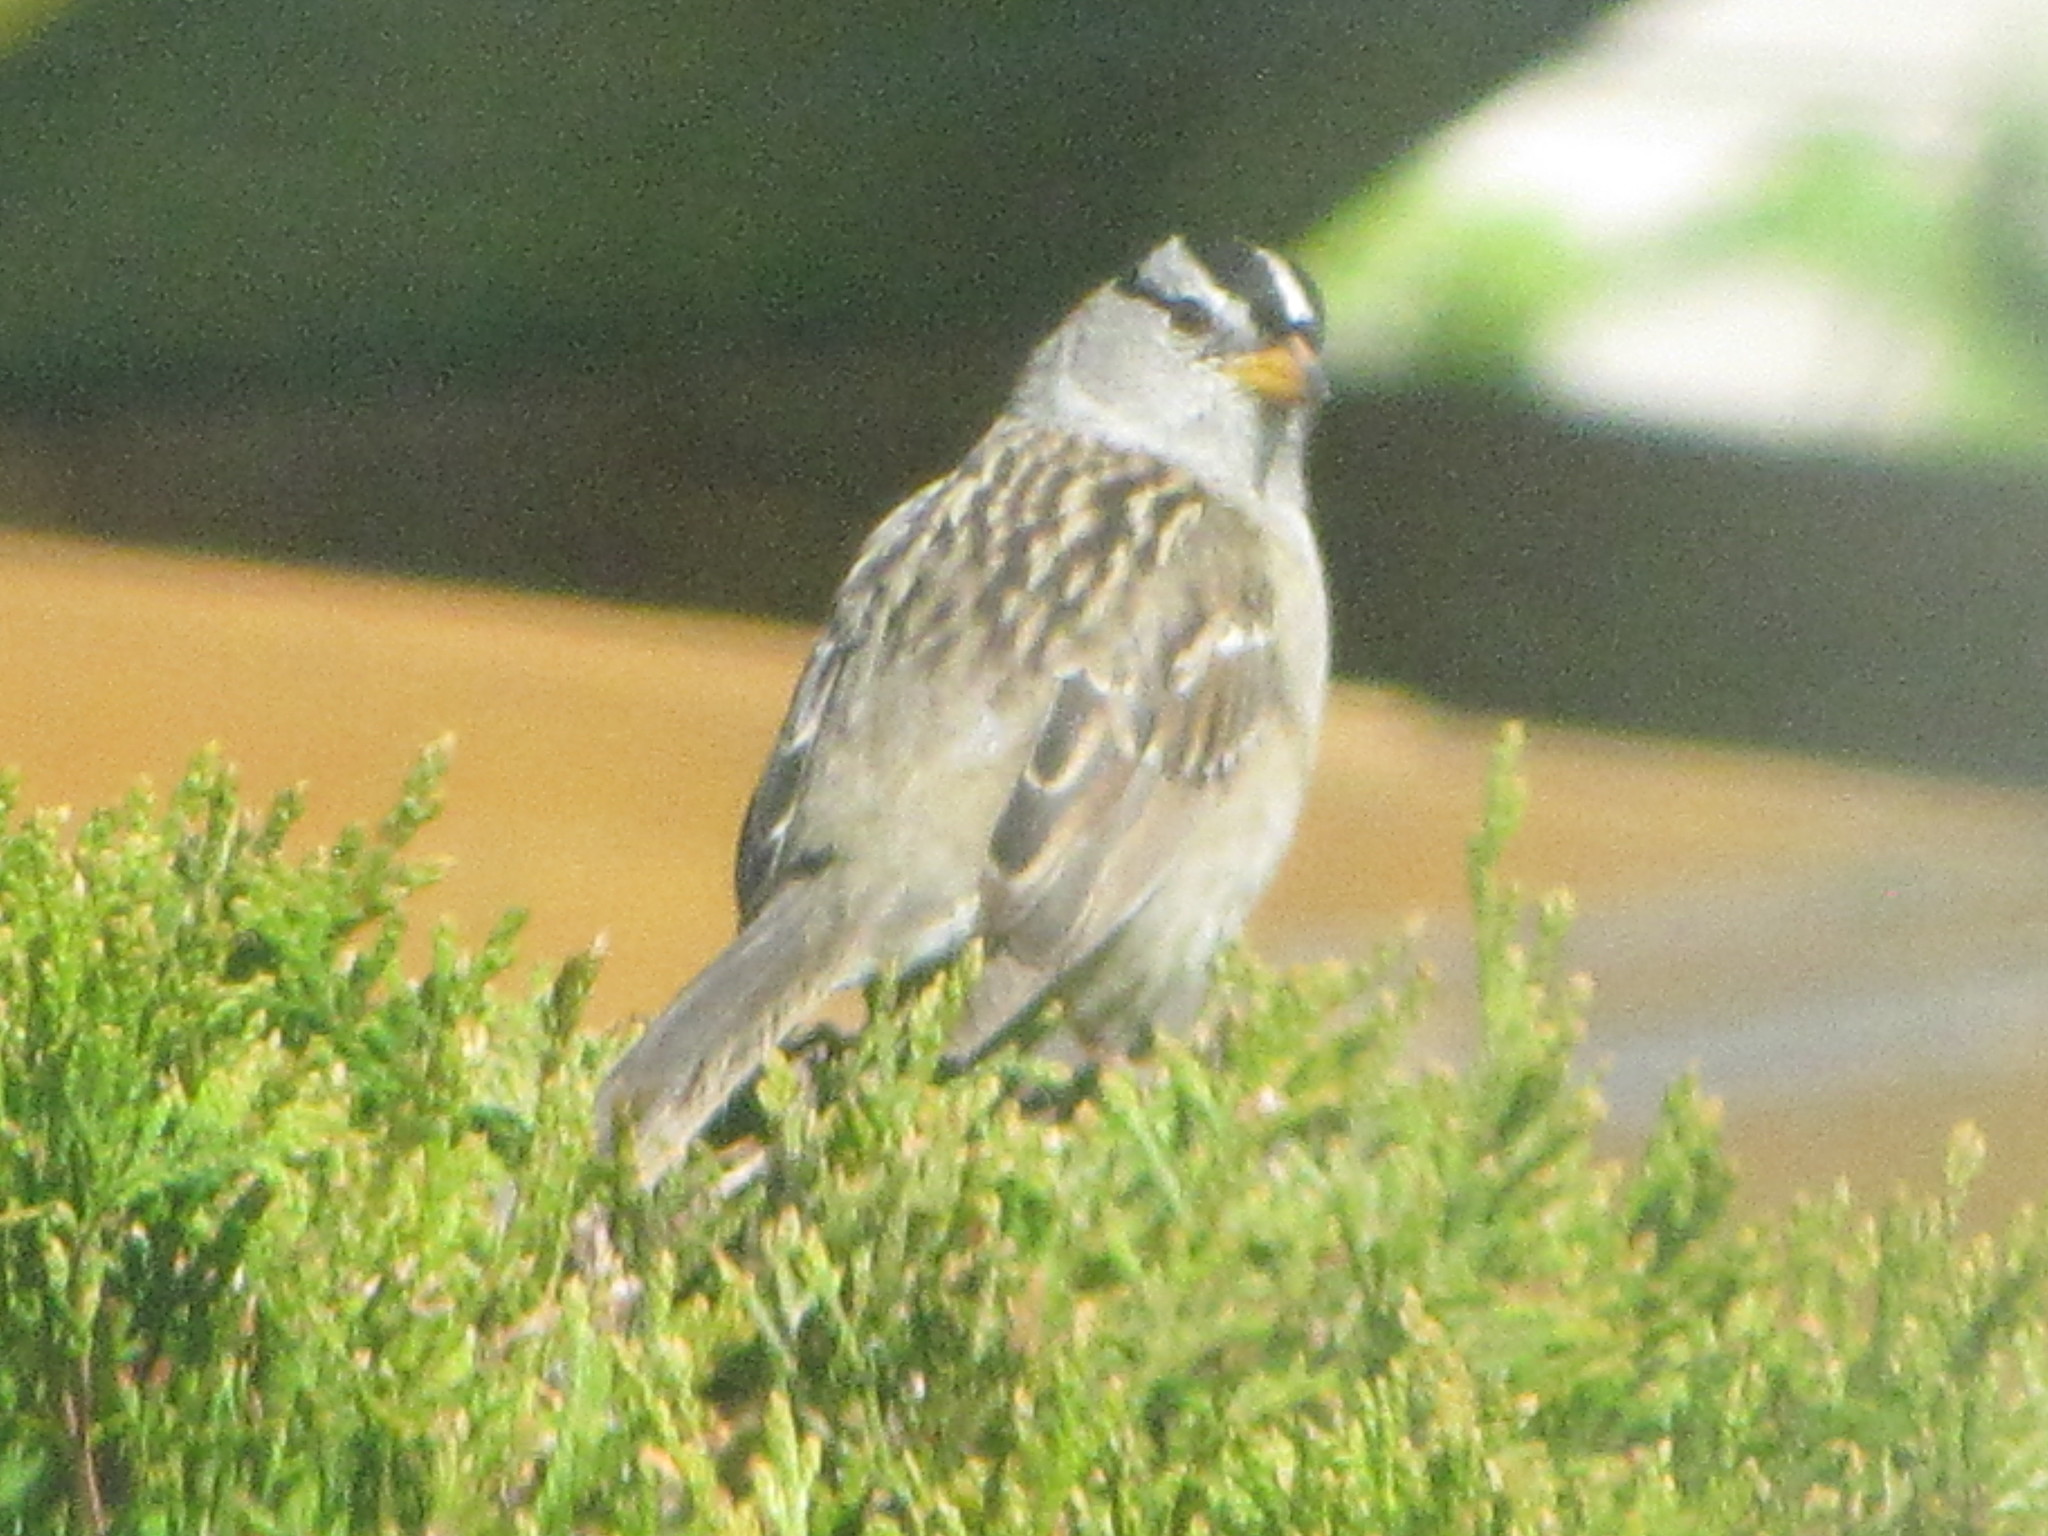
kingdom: Animalia
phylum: Chordata
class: Aves
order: Passeriformes
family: Passerellidae
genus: Zonotrichia
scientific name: Zonotrichia leucophrys
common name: White-crowned sparrow
